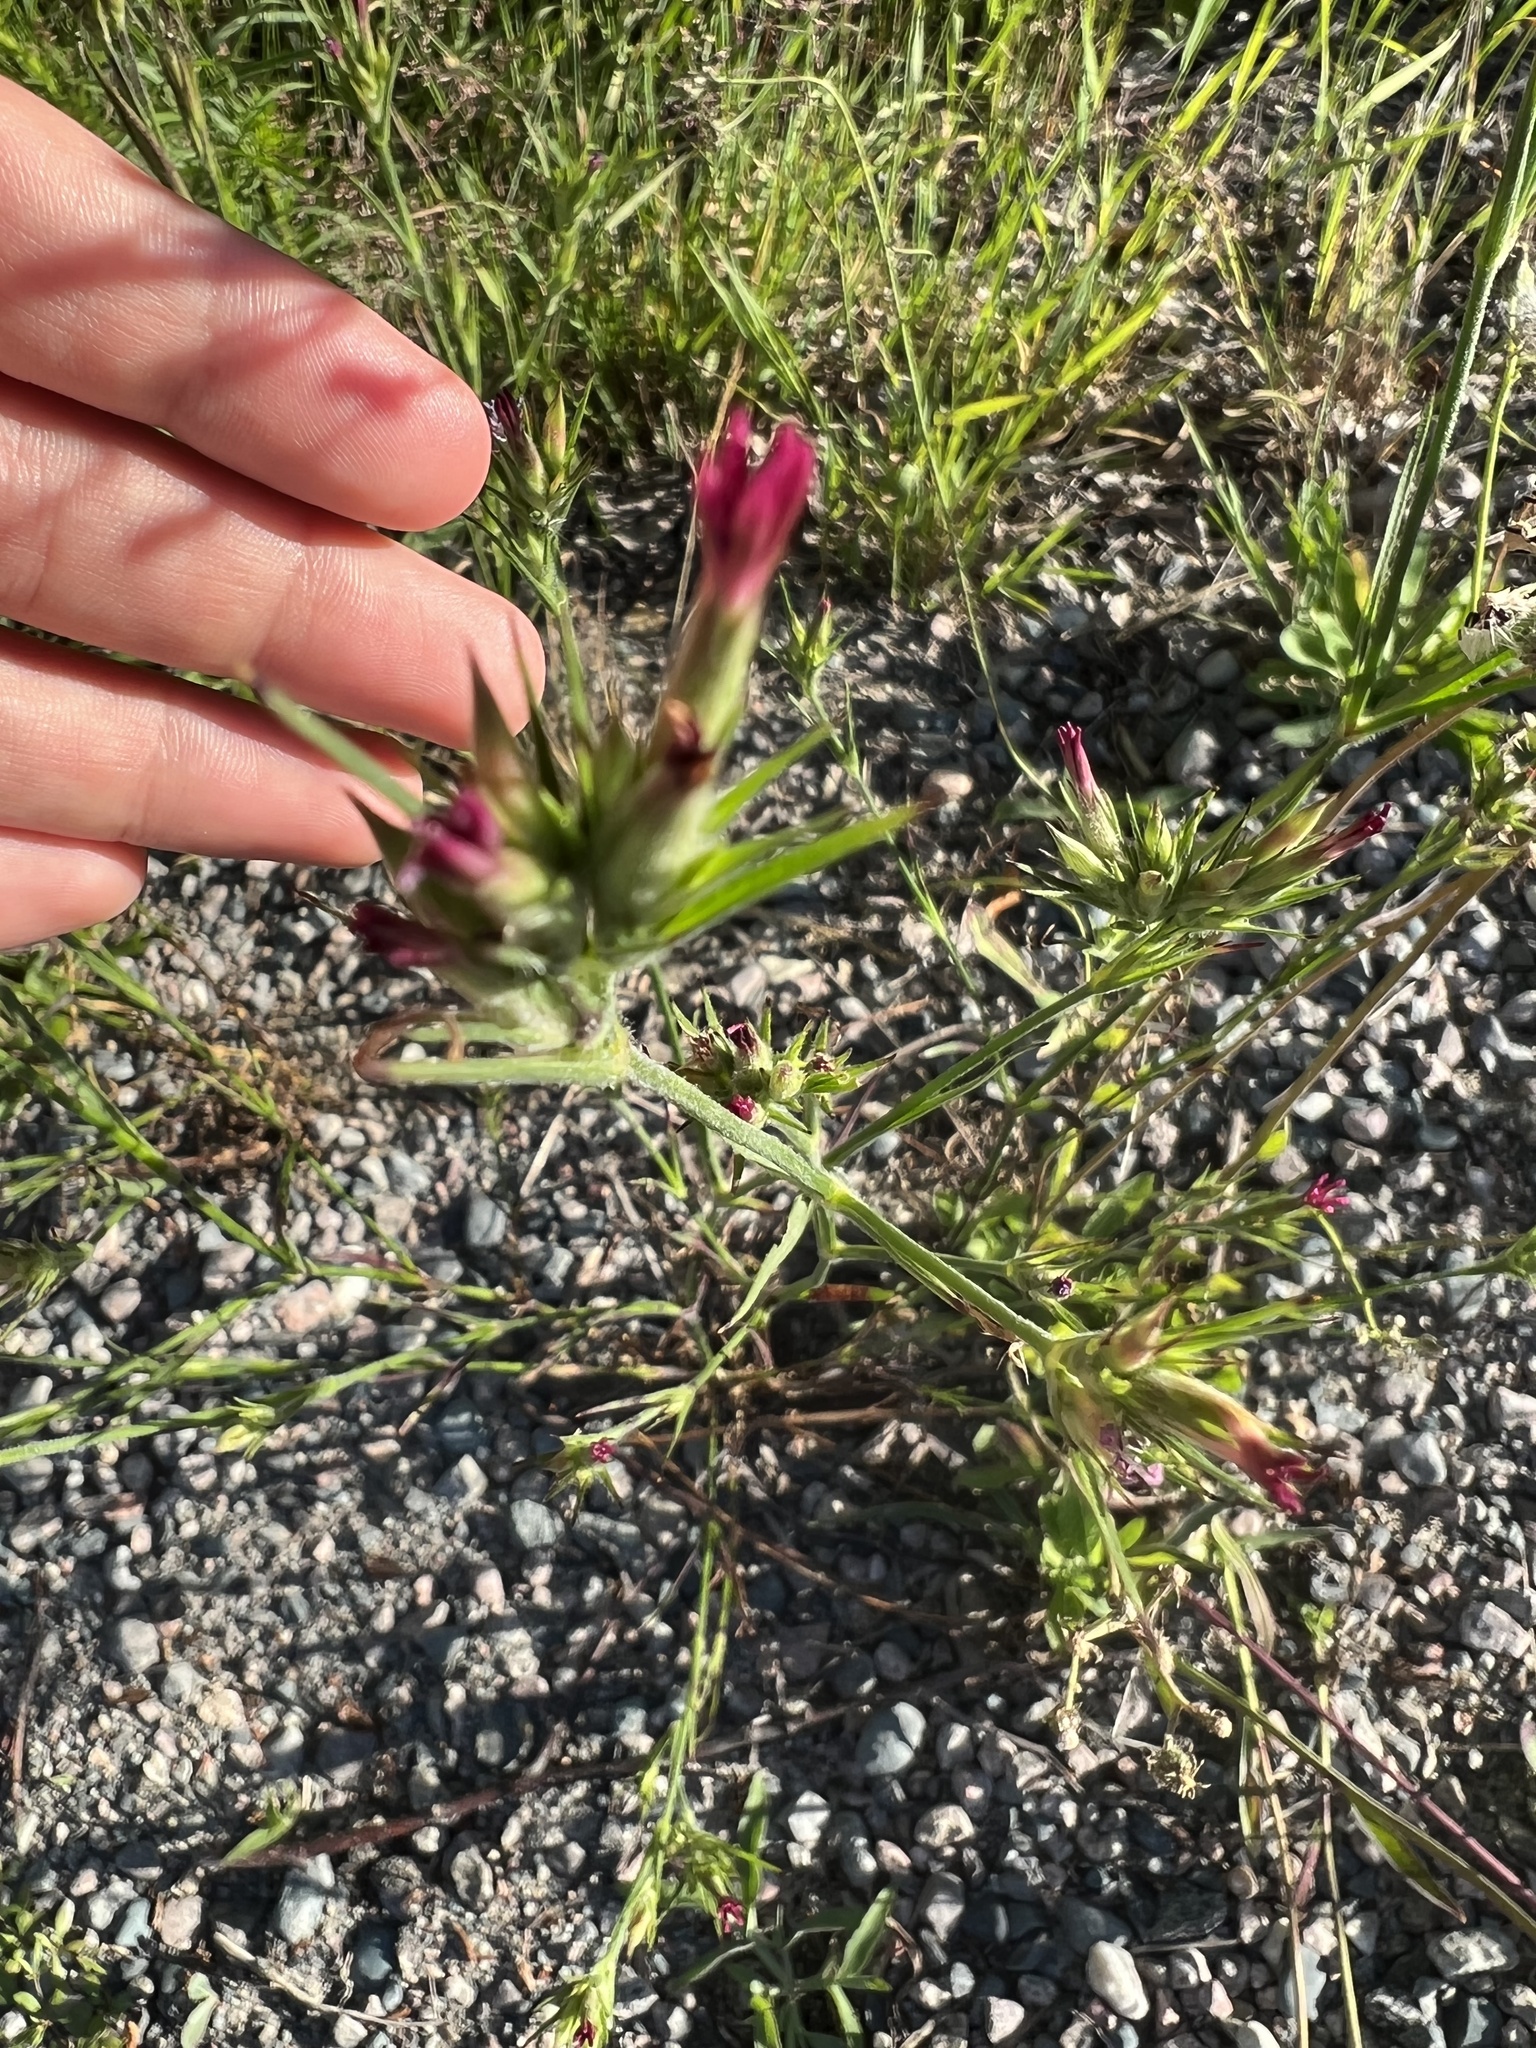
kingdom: Plantae
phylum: Tracheophyta
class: Magnoliopsida
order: Caryophyllales
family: Caryophyllaceae
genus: Dianthus
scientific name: Dianthus armeria
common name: Deptford pink
